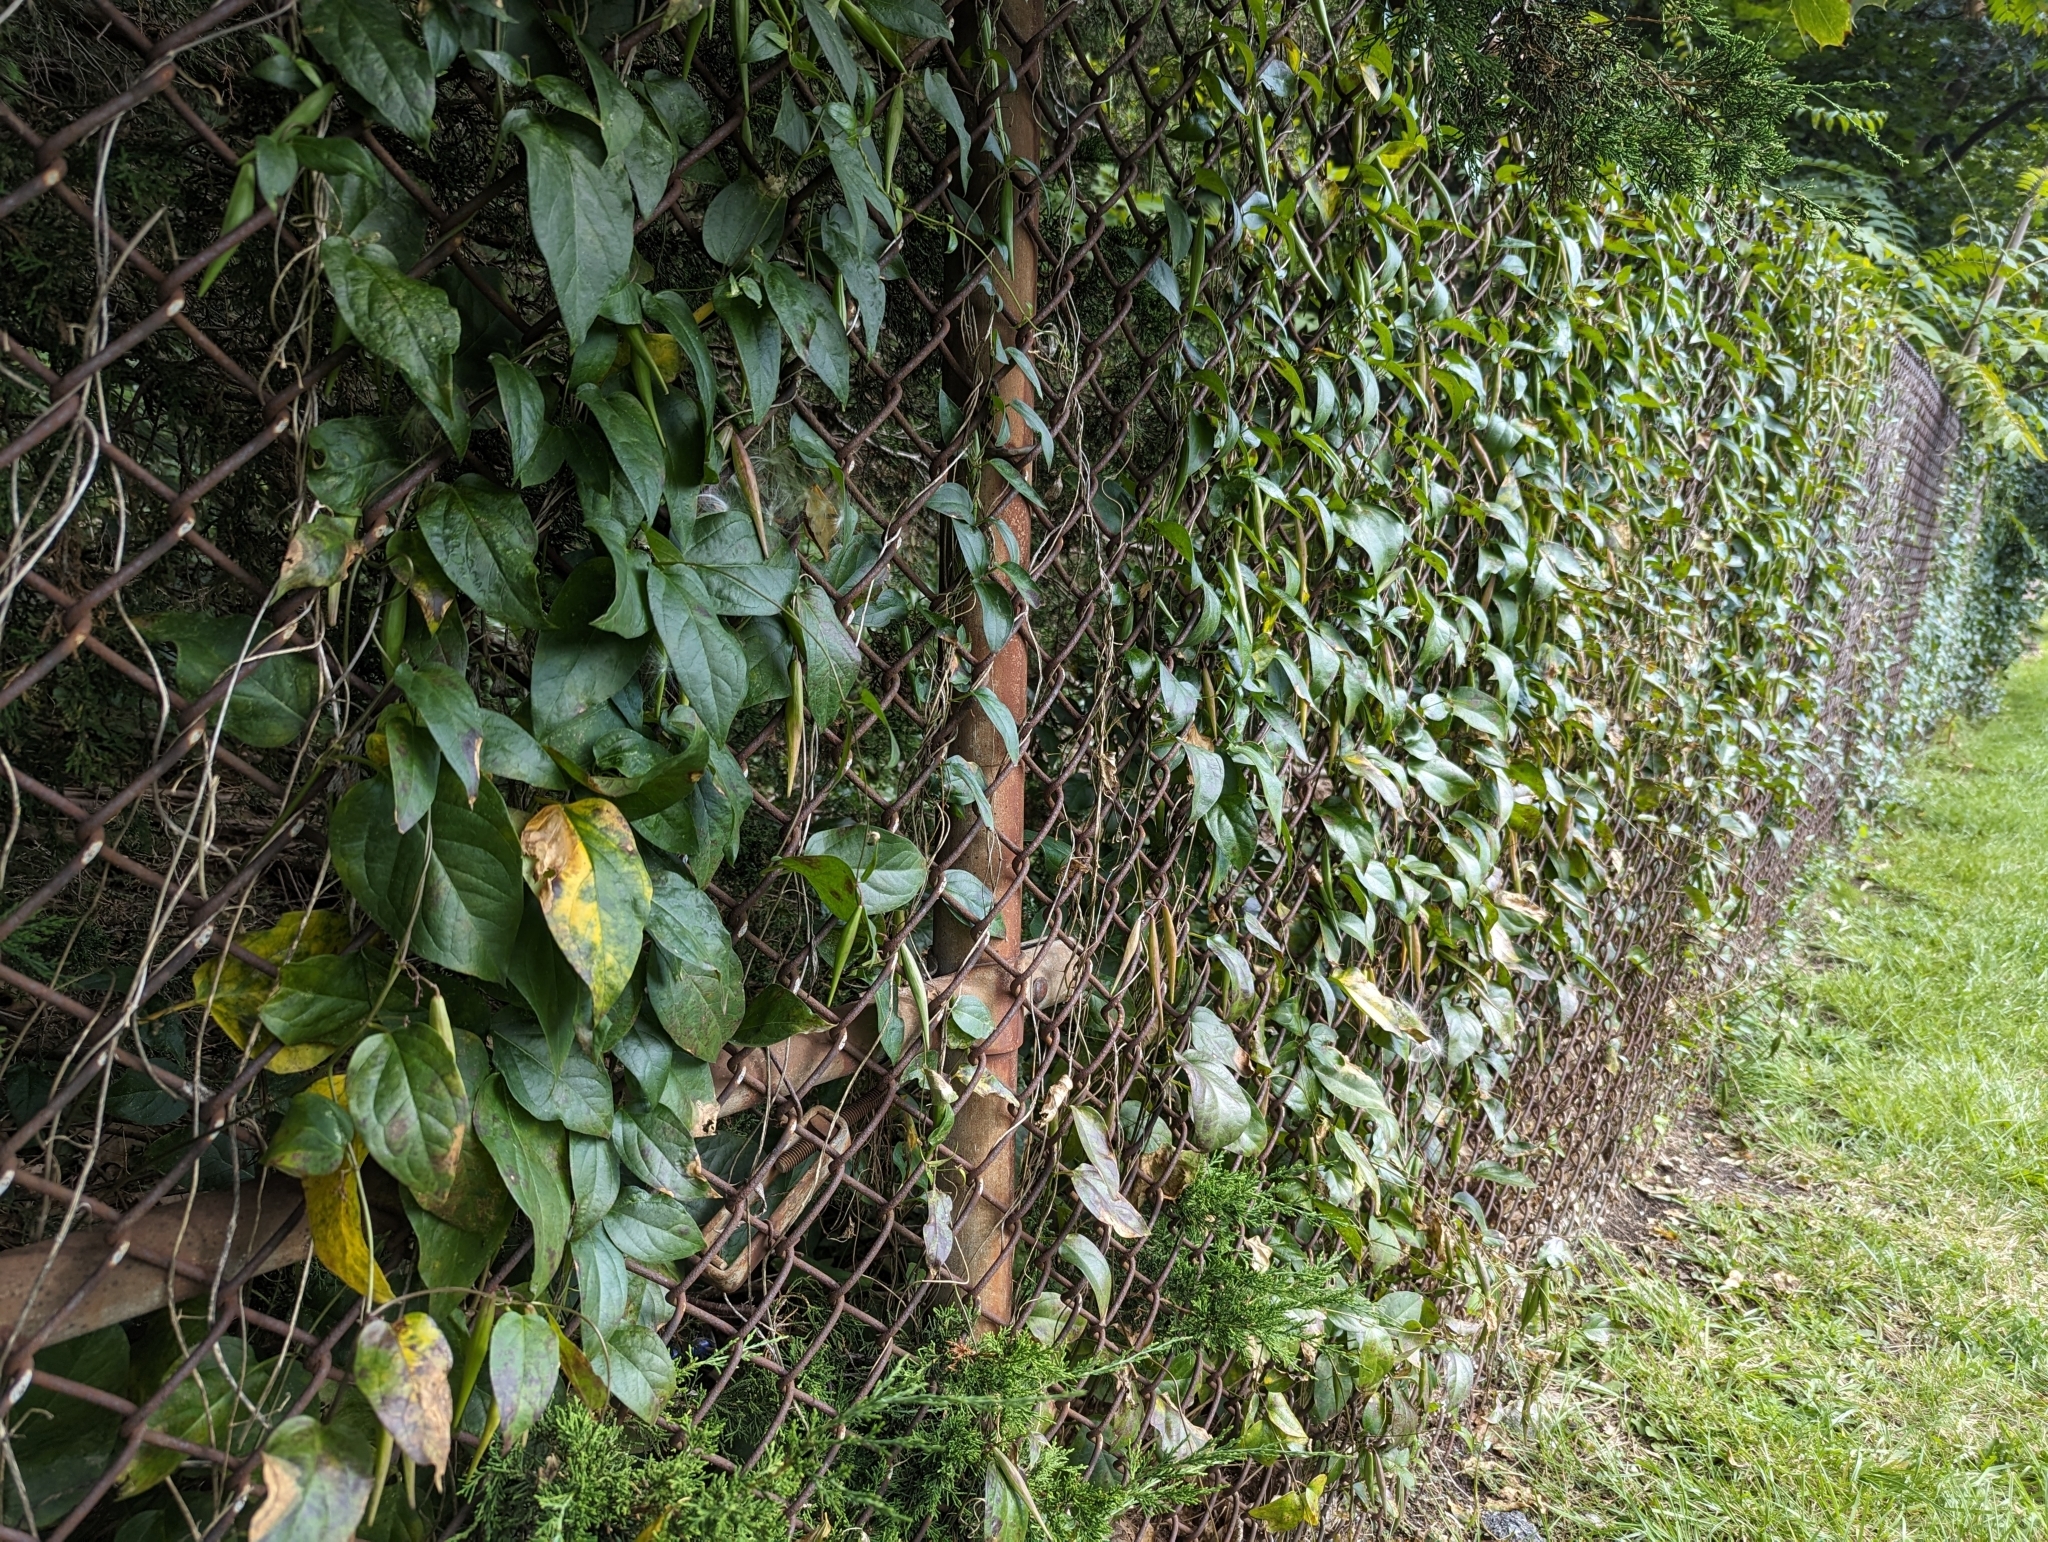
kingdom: Plantae
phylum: Tracheophyta
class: Magnoliopsida
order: Gentianales
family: Apocynaceae
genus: Vincetoxicum
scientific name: Vincetoxicum nigrum
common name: Black swallow-wort
